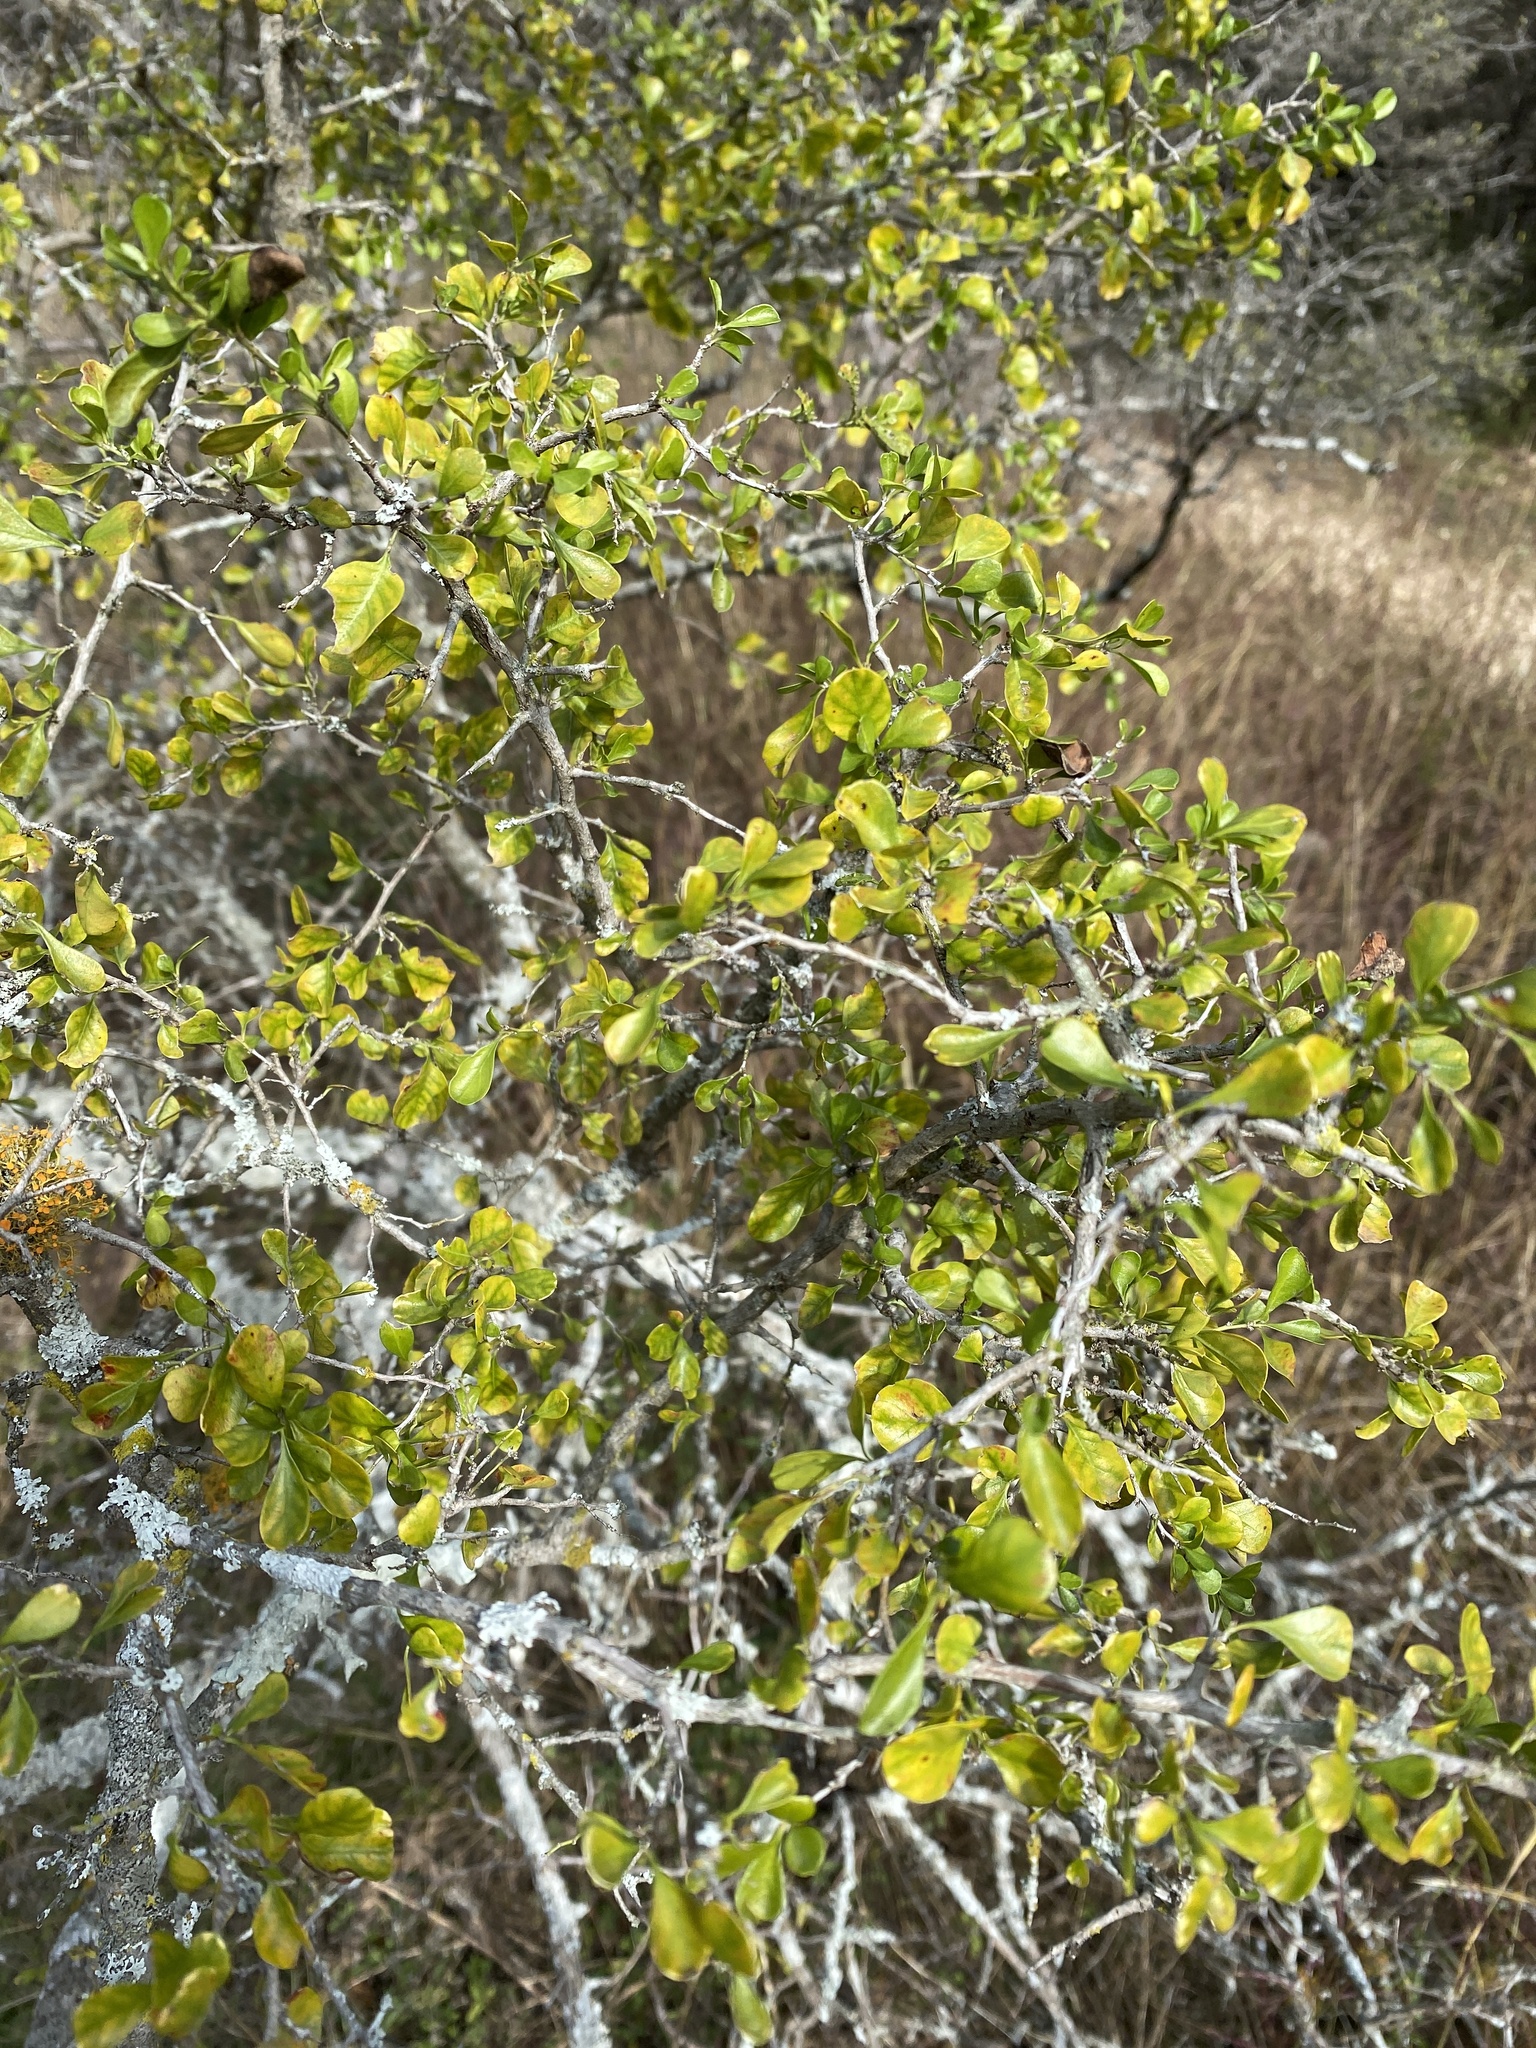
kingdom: Plantae
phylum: Tracheophyta
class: Magnoliopsida
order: Rosales
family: Rhamnaceae
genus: Condalia
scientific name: Condalia hookeri
